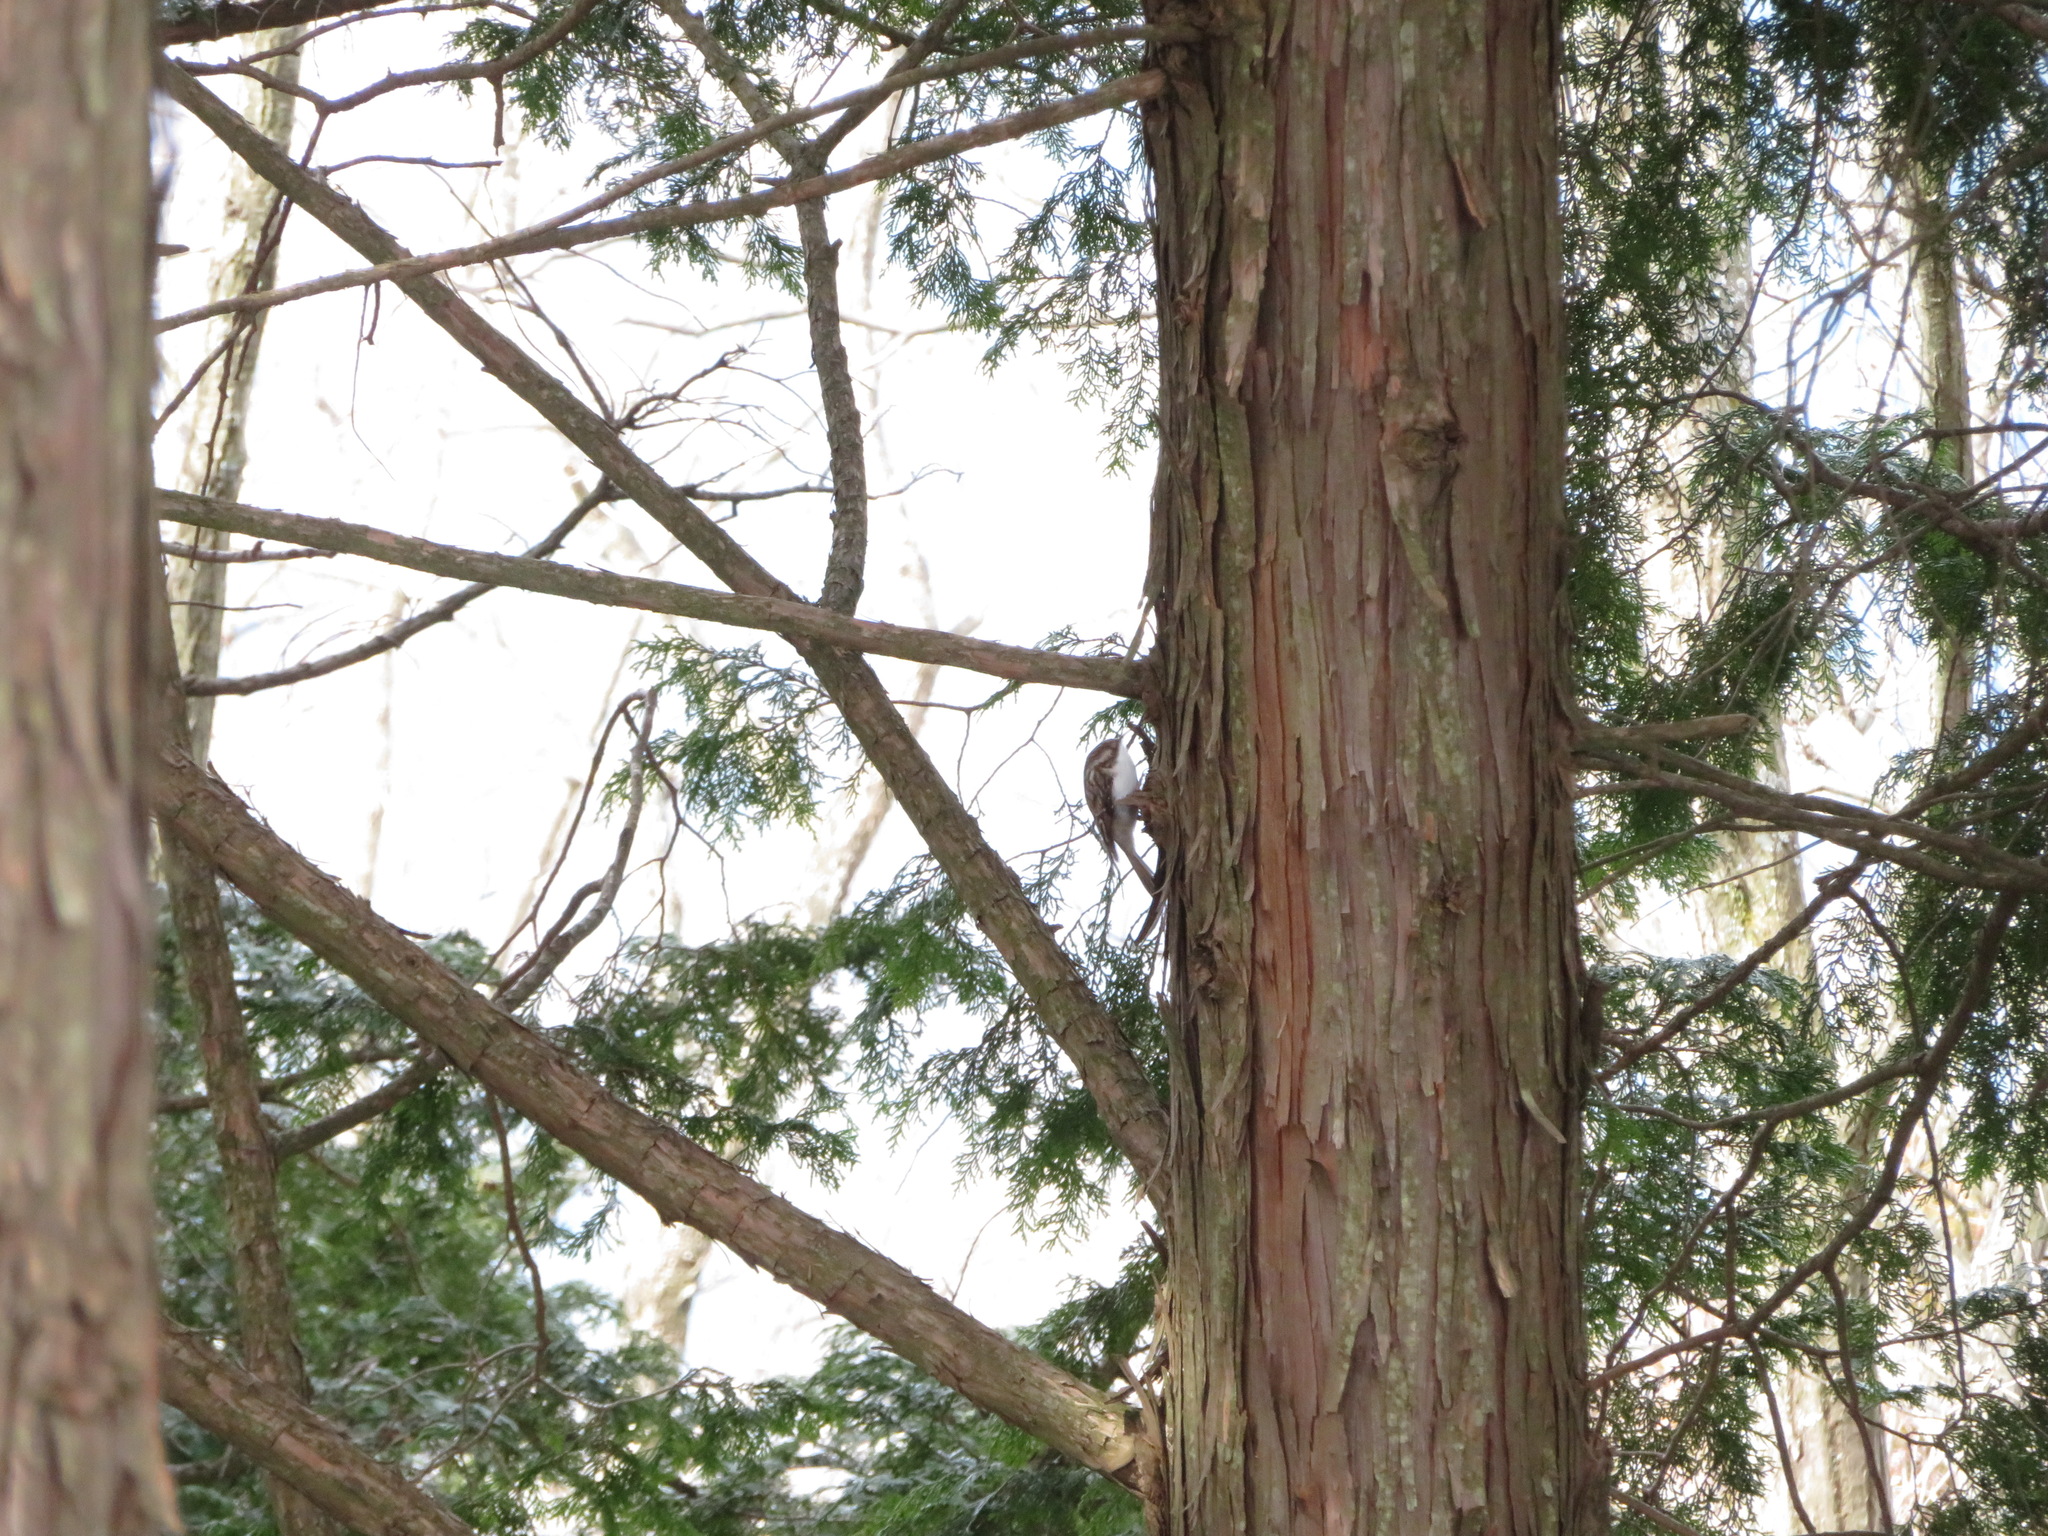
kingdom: Animalia
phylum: Chordata
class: Aves
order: Passeriformes
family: Certhiidae
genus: Certhia
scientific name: Certhia familiaris
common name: Eurasian treecreeper
